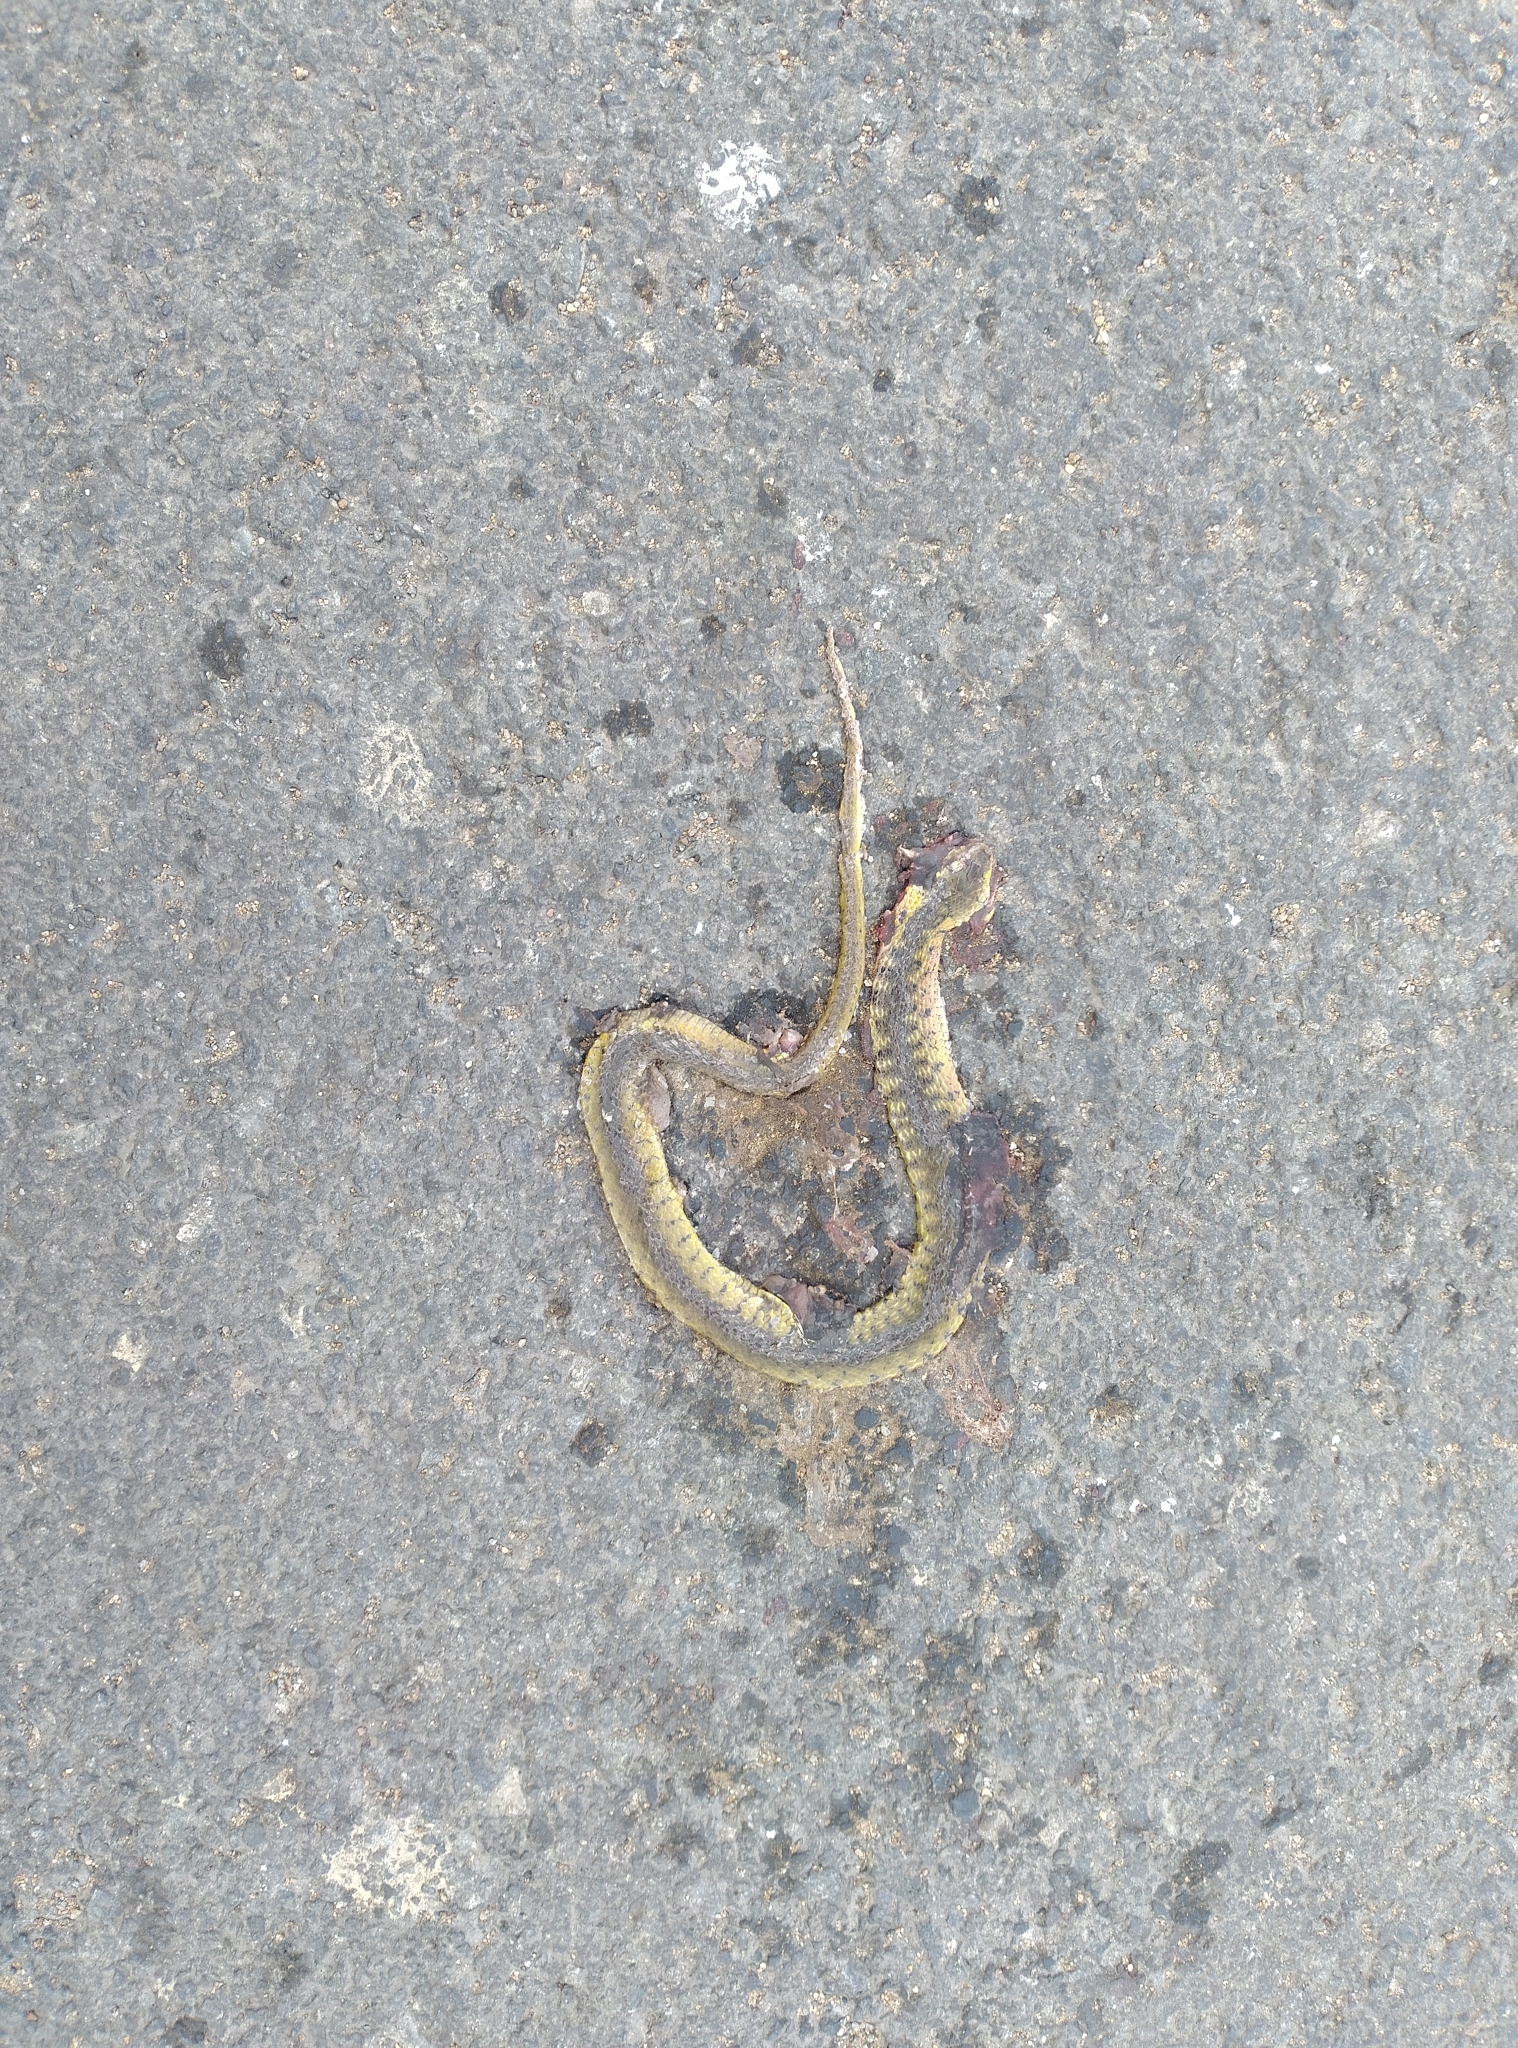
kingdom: Animalia
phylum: Chordata
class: Squamata
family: Colubridae
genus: Fowlea
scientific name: Fowlea piscator
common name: Asiatic water snake
